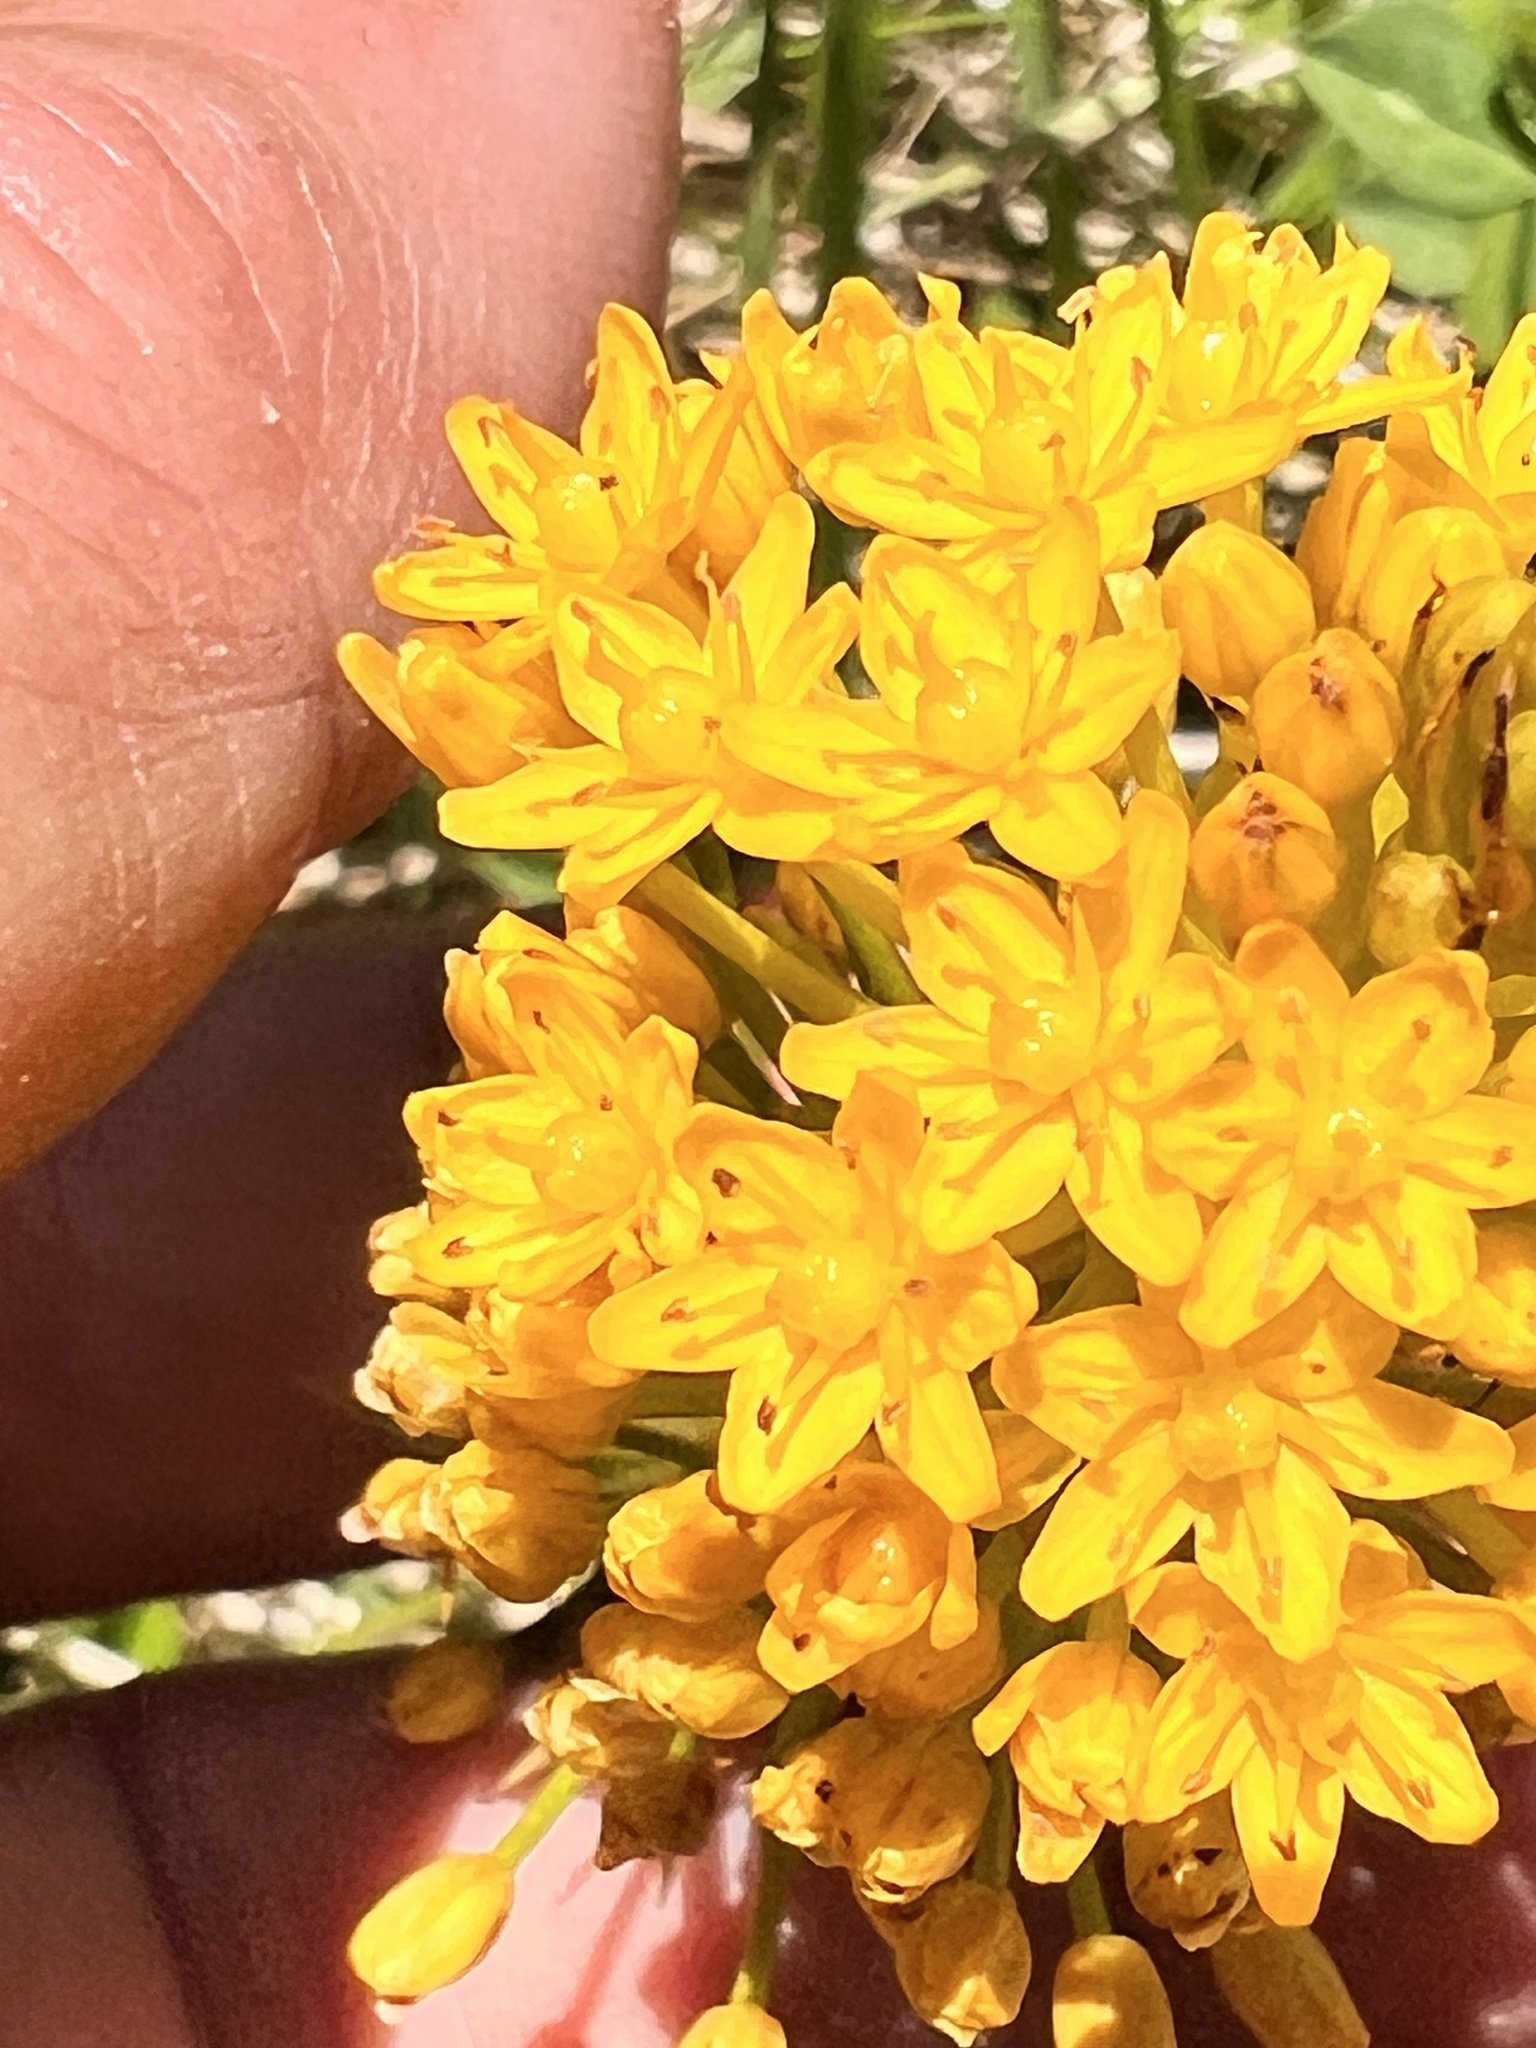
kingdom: Plantae
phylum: Tracheophyta
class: Liliopsida
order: Asparagales
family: Asphodelaceae
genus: Bulbinella
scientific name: Bulbinella gibbsii
